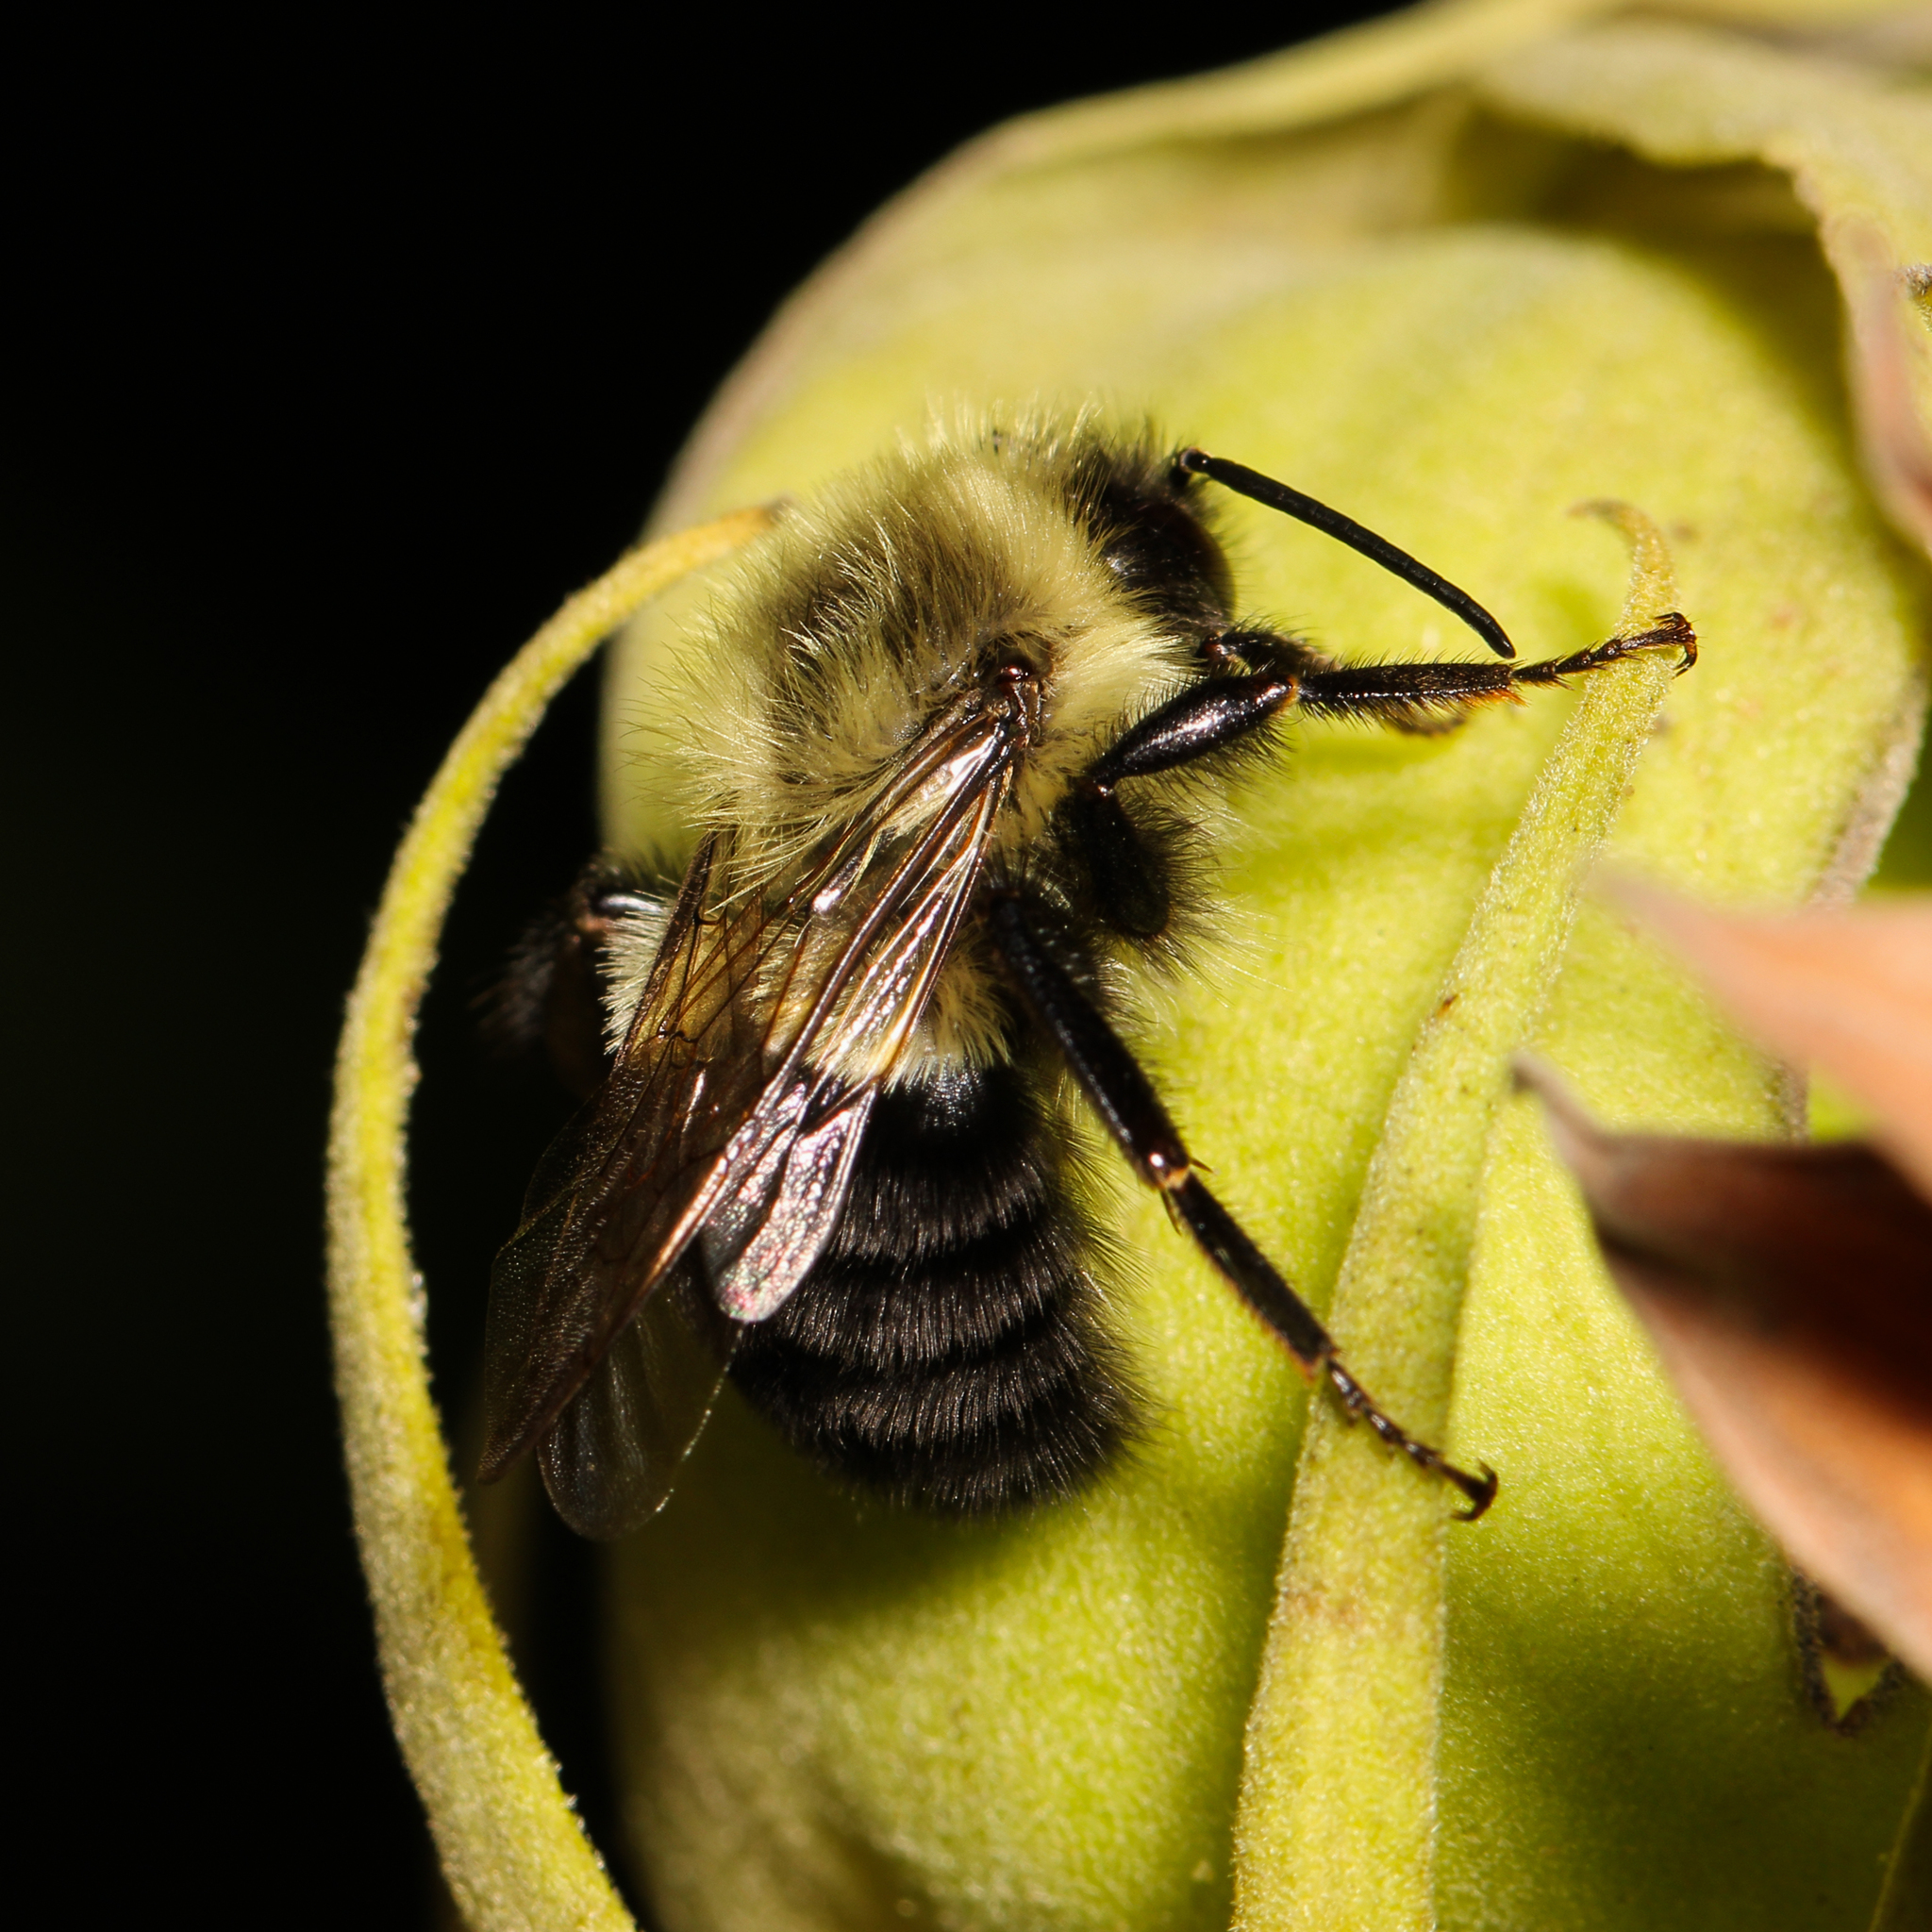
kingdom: Animalia
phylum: Arthropoda
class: Insecta
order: Hymenoptera
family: Apidae
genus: Bombus
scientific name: Bombus impatiens
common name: Common eastern bumble bee
